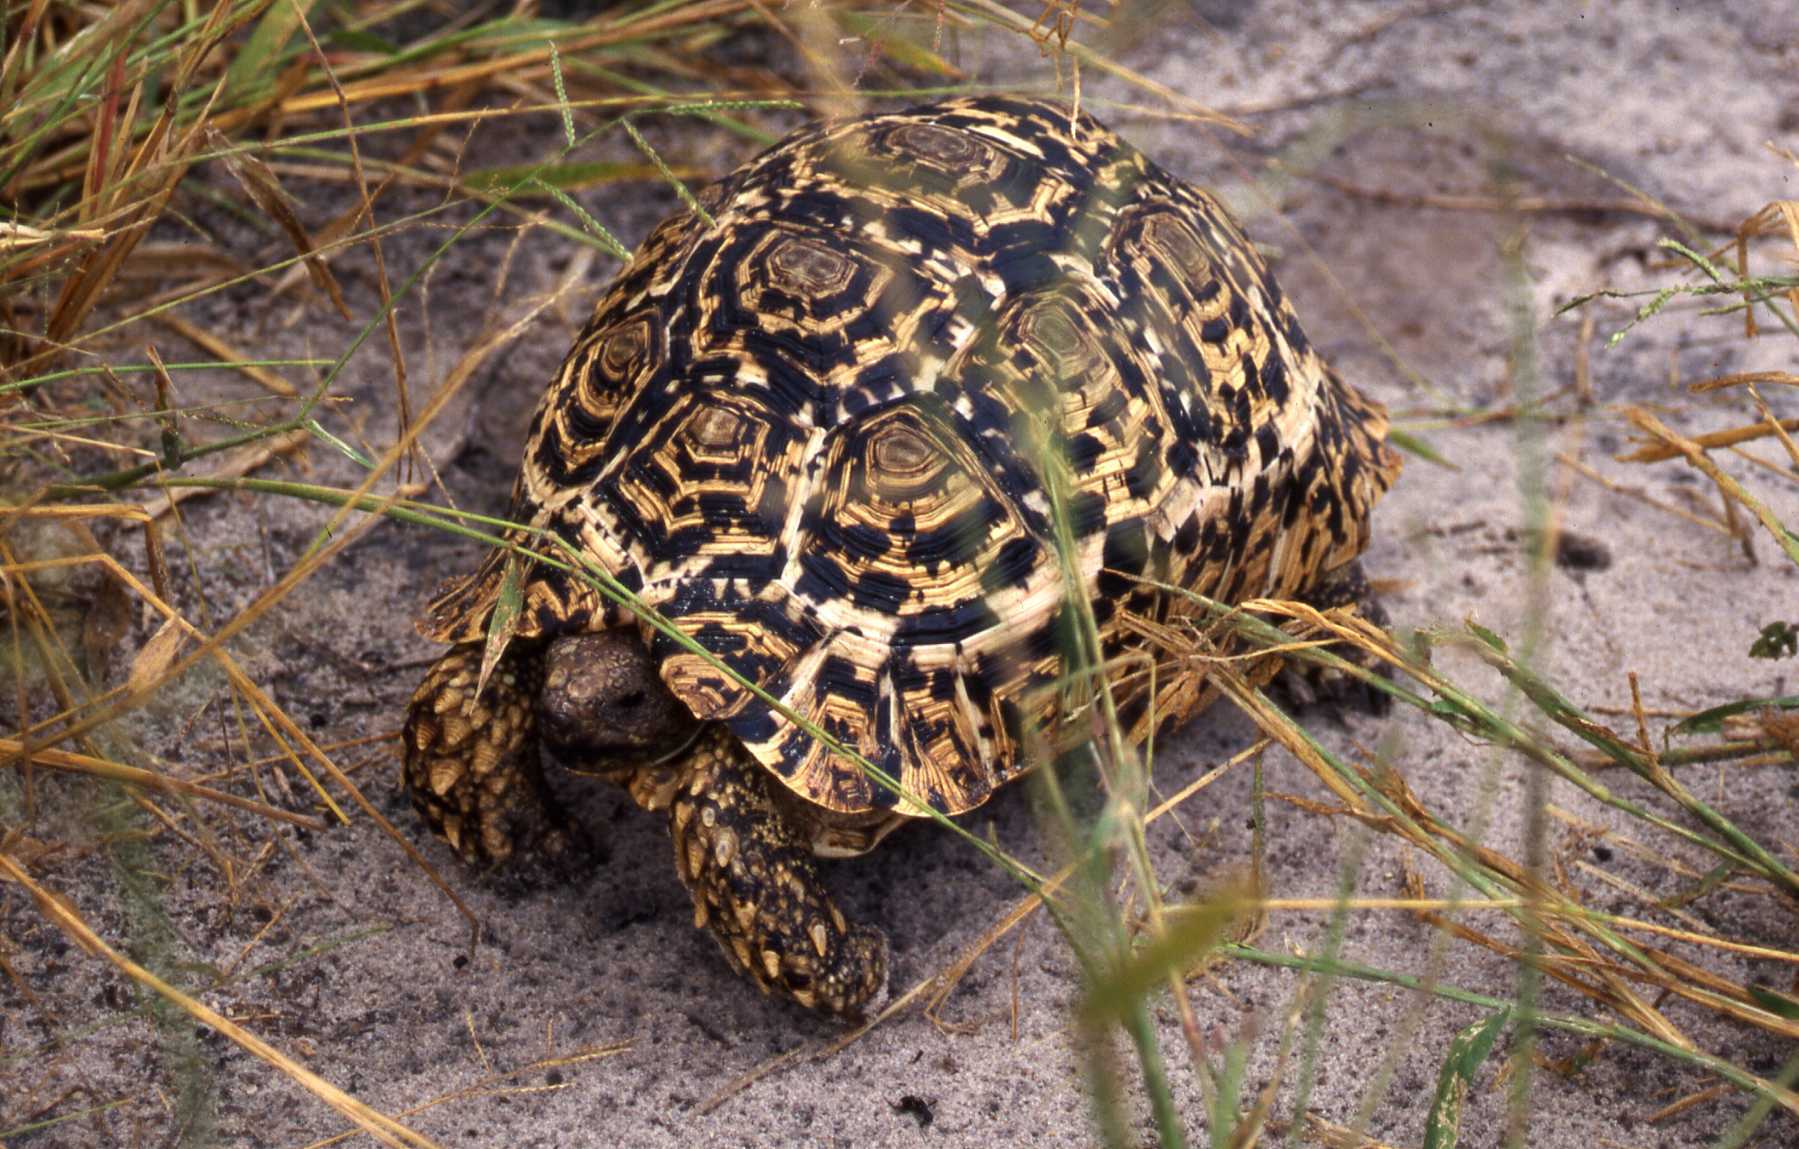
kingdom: Animalia
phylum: Chordata
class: Testudines
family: Testudinidae
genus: Stigmochelys
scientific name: Stigmochelys pardalis
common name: Leopard tortoise
